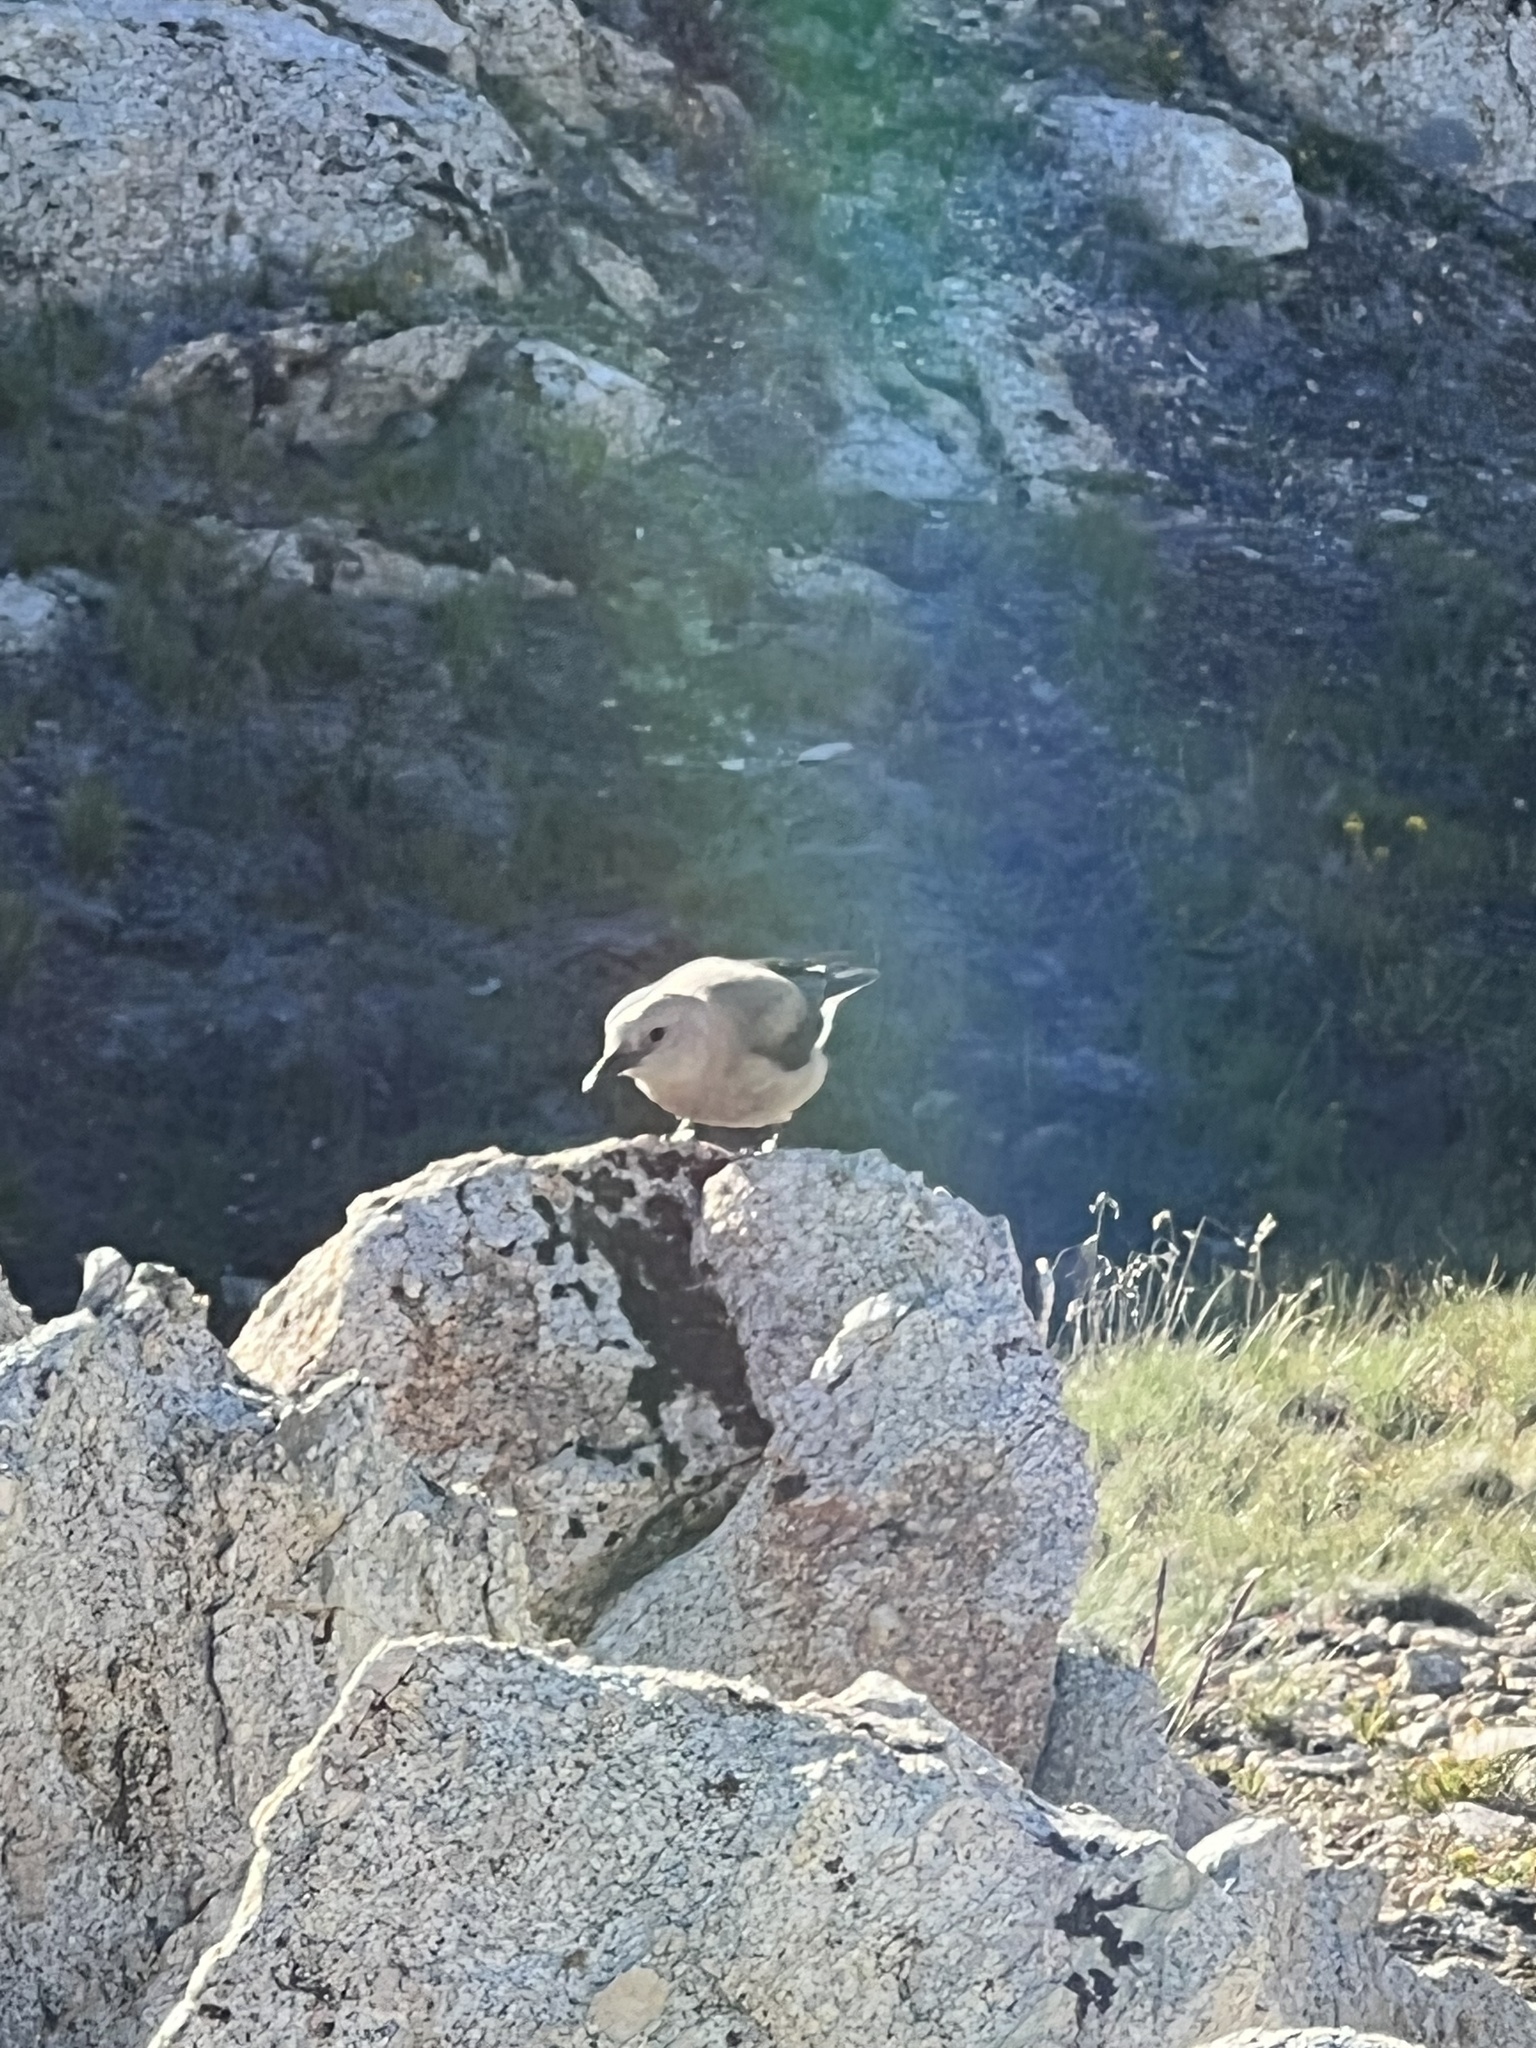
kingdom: Animalia
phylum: Chordata
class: Aves
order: Passeriformes
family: Corvidae
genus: Nucifraga
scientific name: Nucifraga columbiana
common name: Clark's nutcracker
